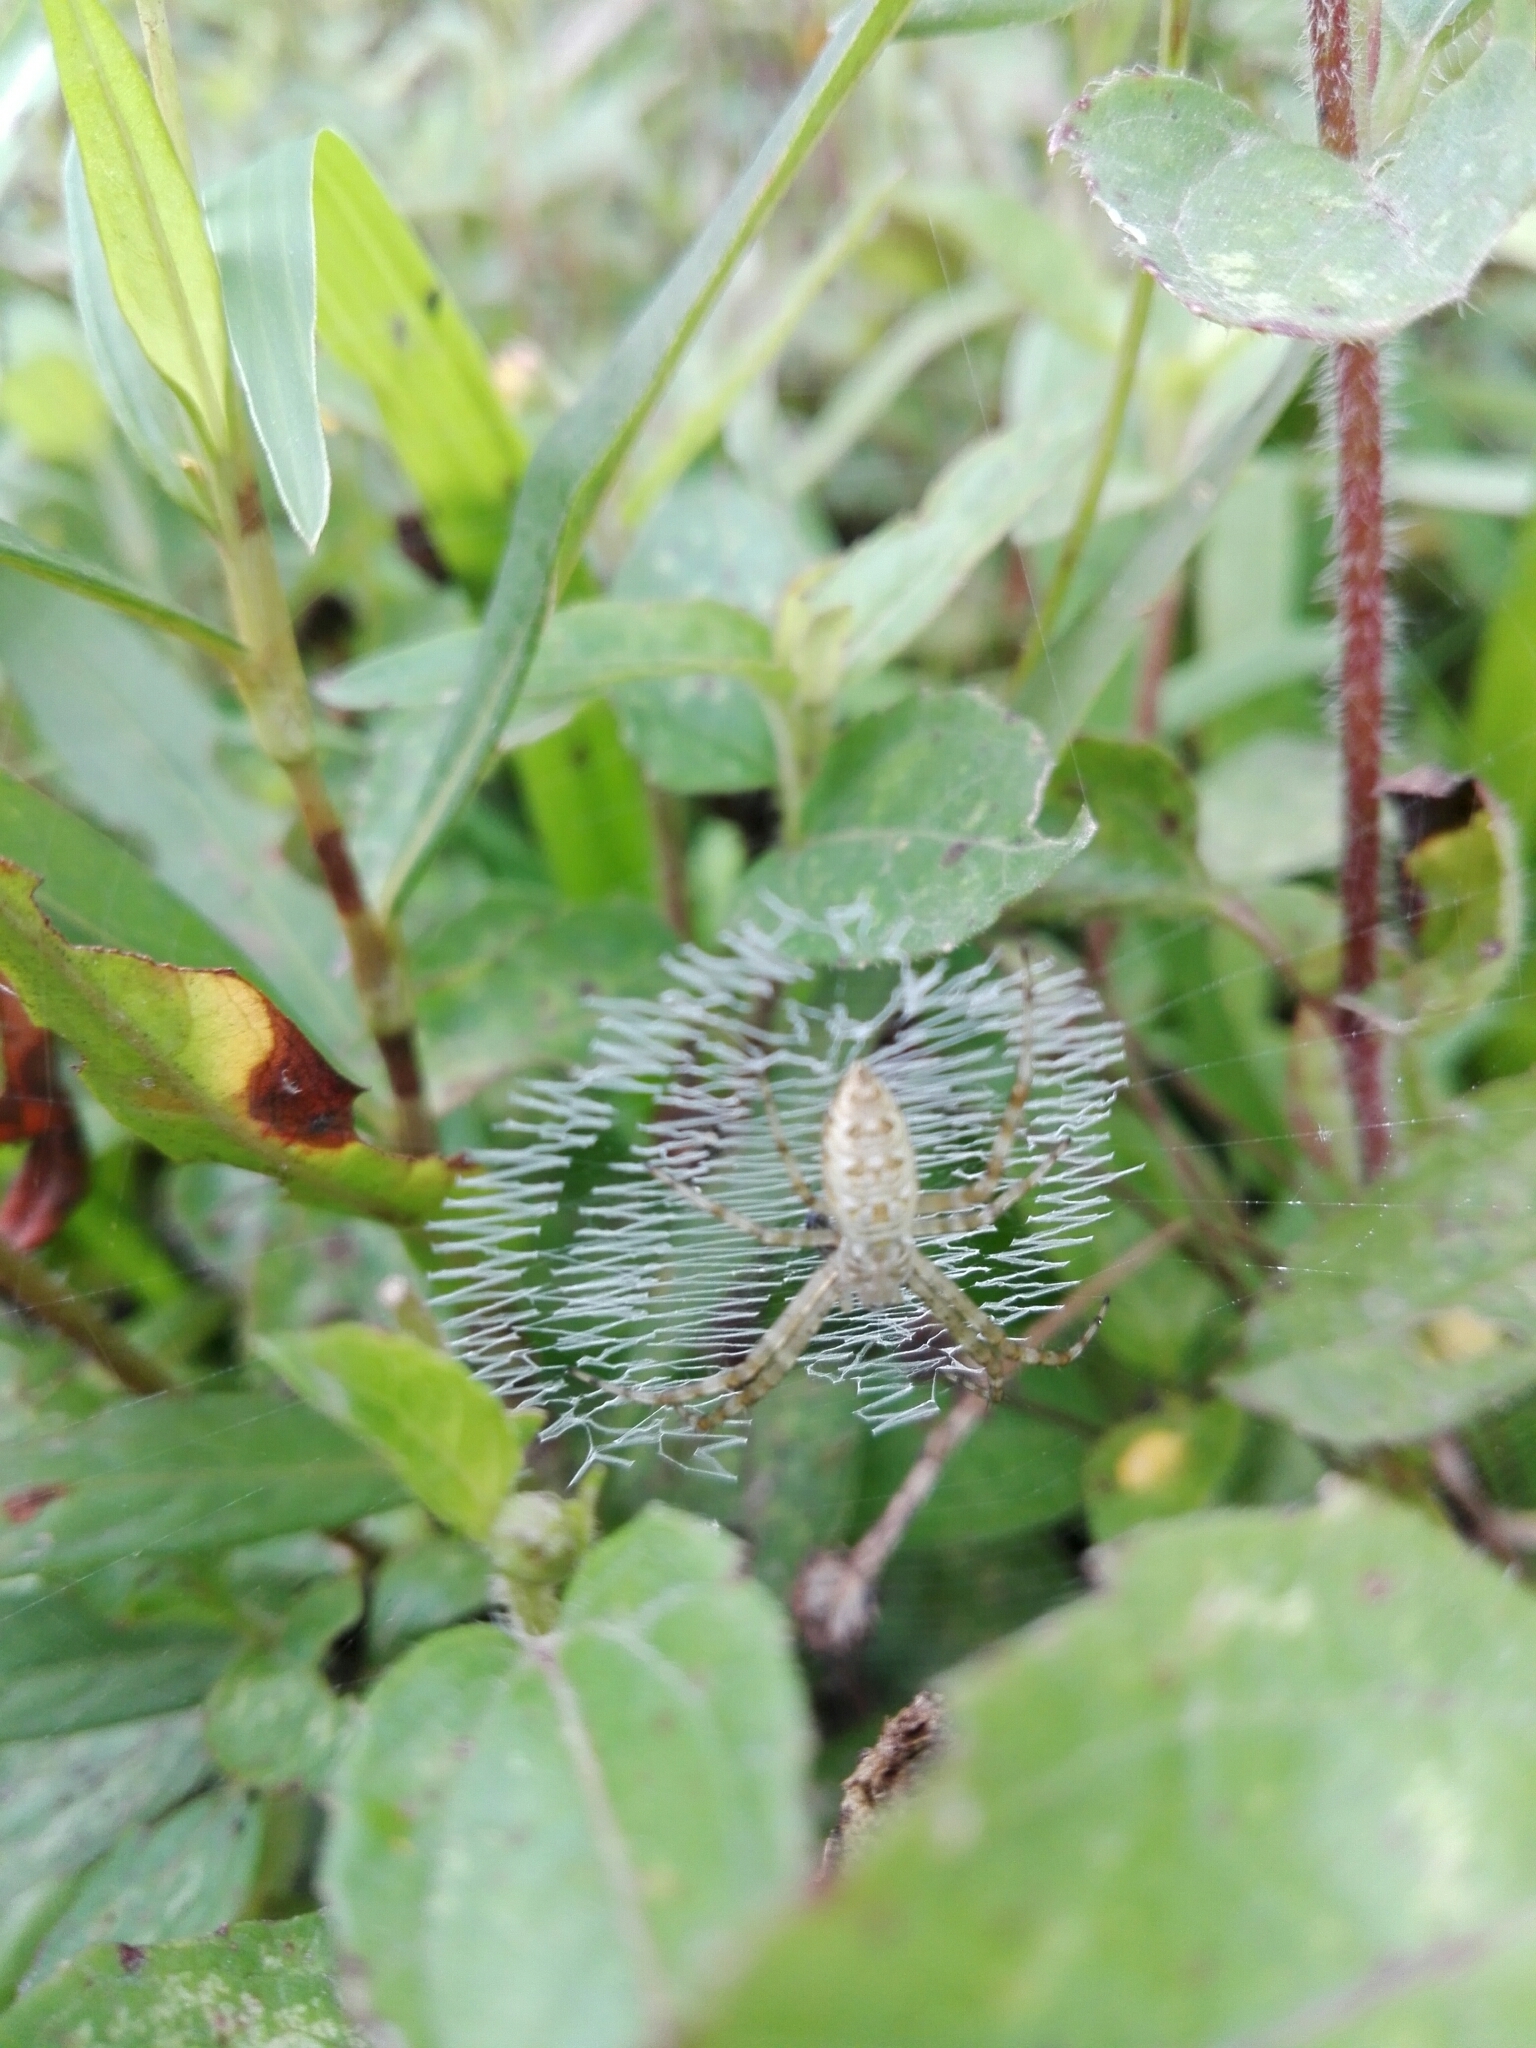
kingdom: Animalia
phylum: Arthropoda
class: Arachnida
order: Araneae
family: Araneidae
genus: Argiope
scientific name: Argiope aurantia
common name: Orb weavers
